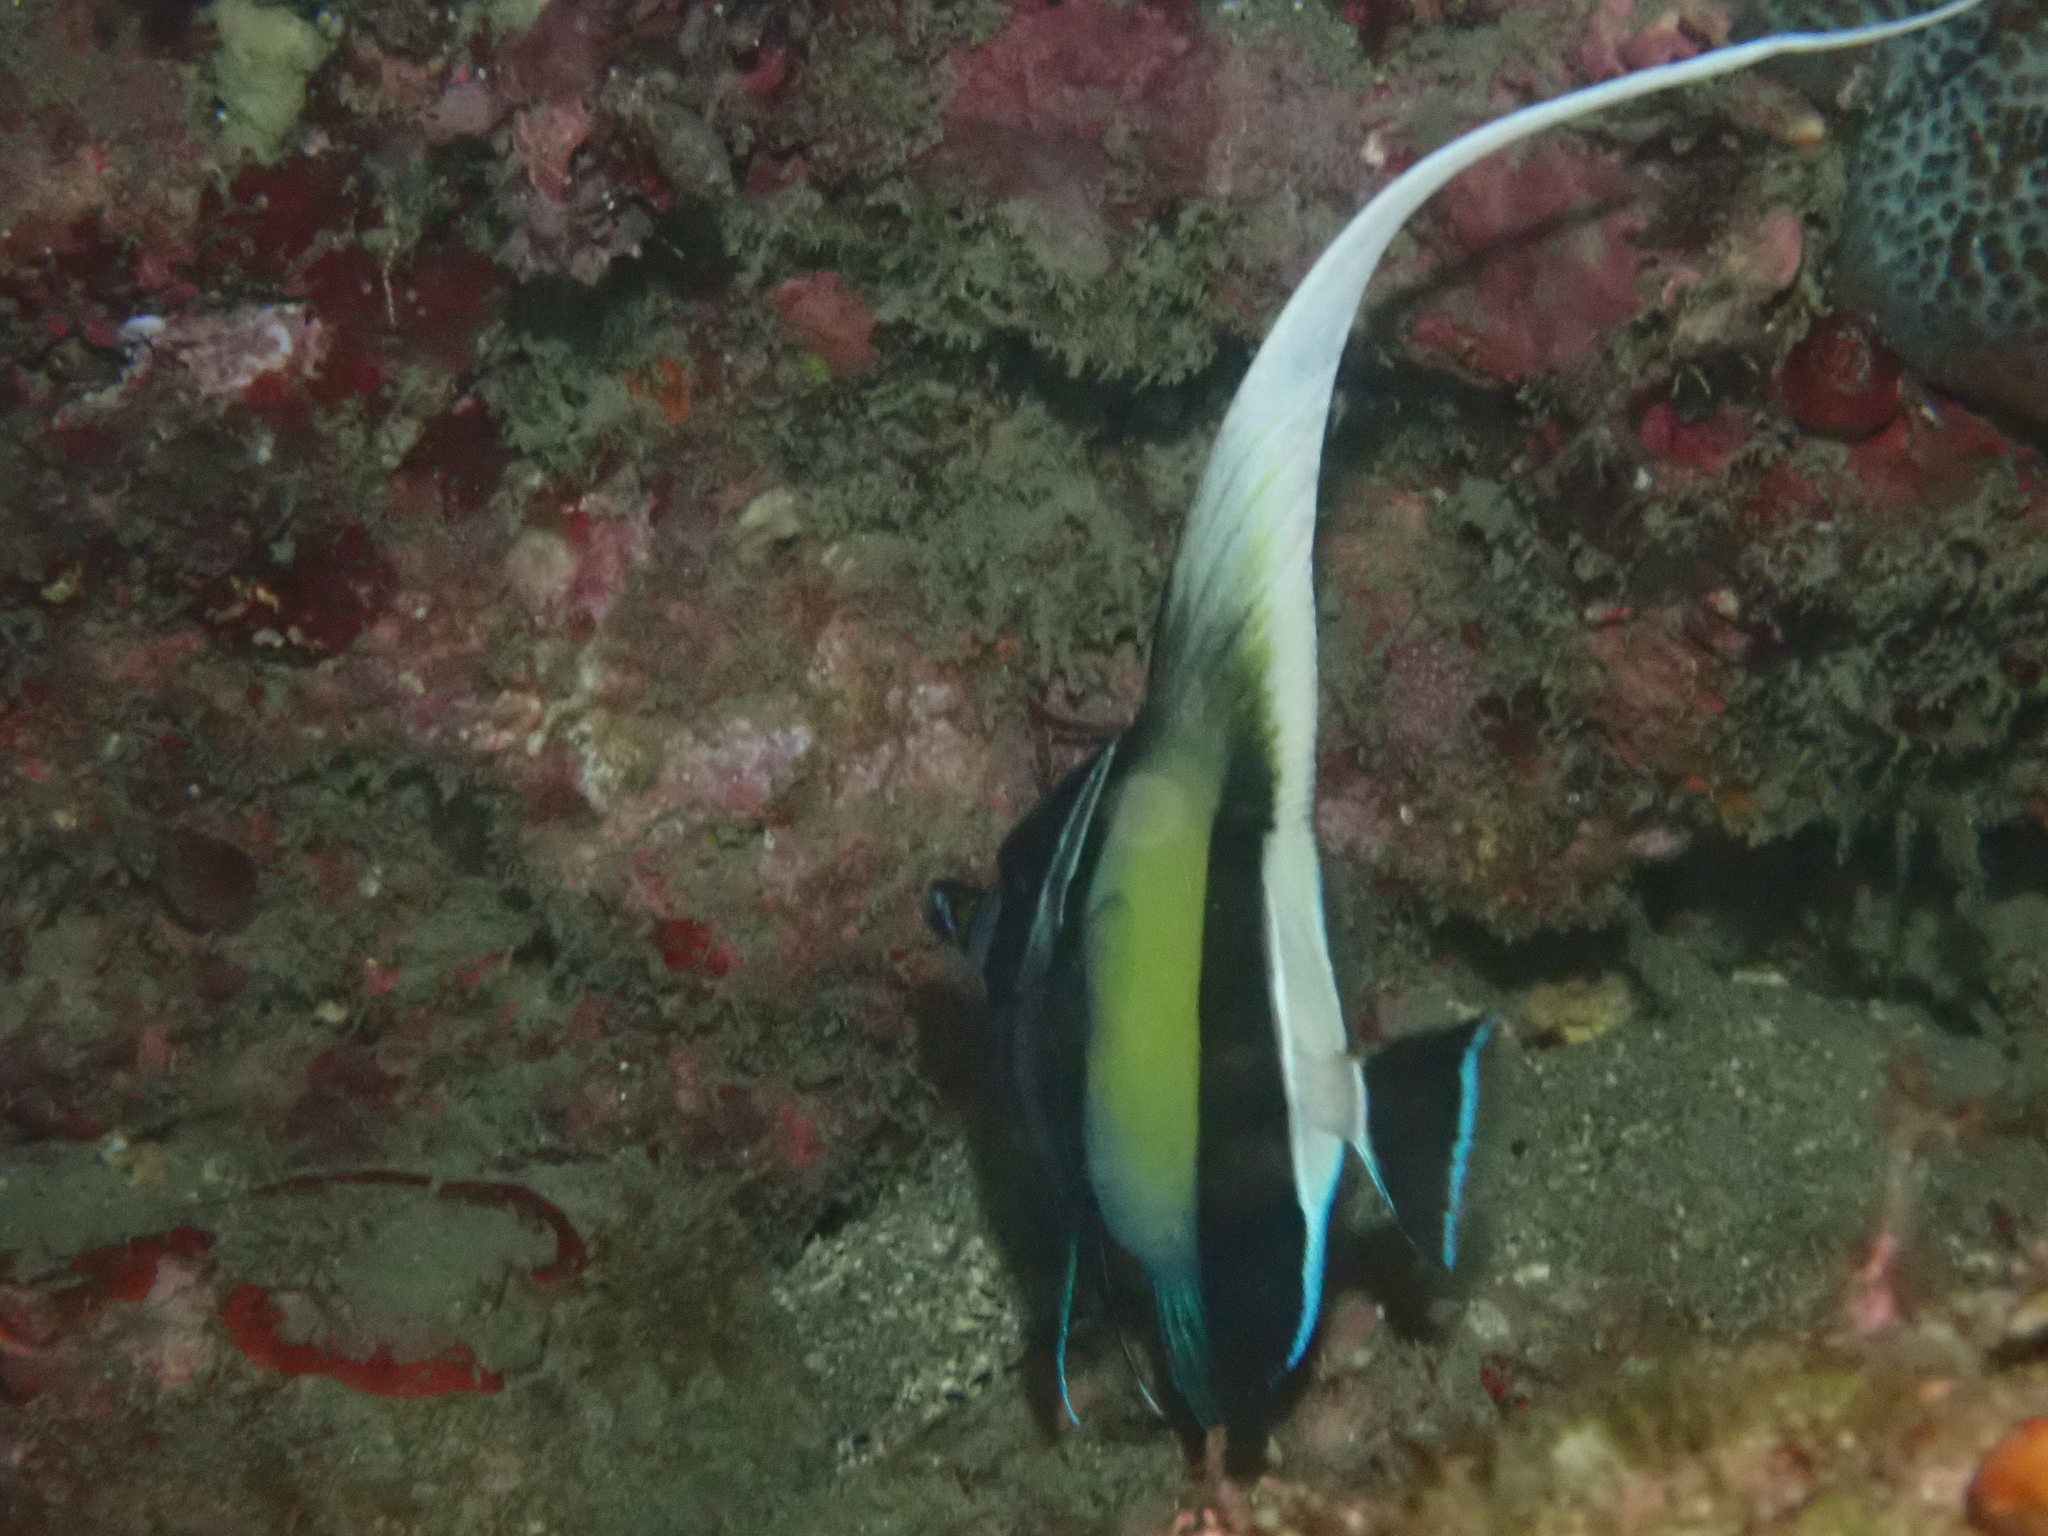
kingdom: Animalia
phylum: Chordata
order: Perciformes
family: Zanclidae
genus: Zanclus
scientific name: Zanclus cornutus
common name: Moorish idol
